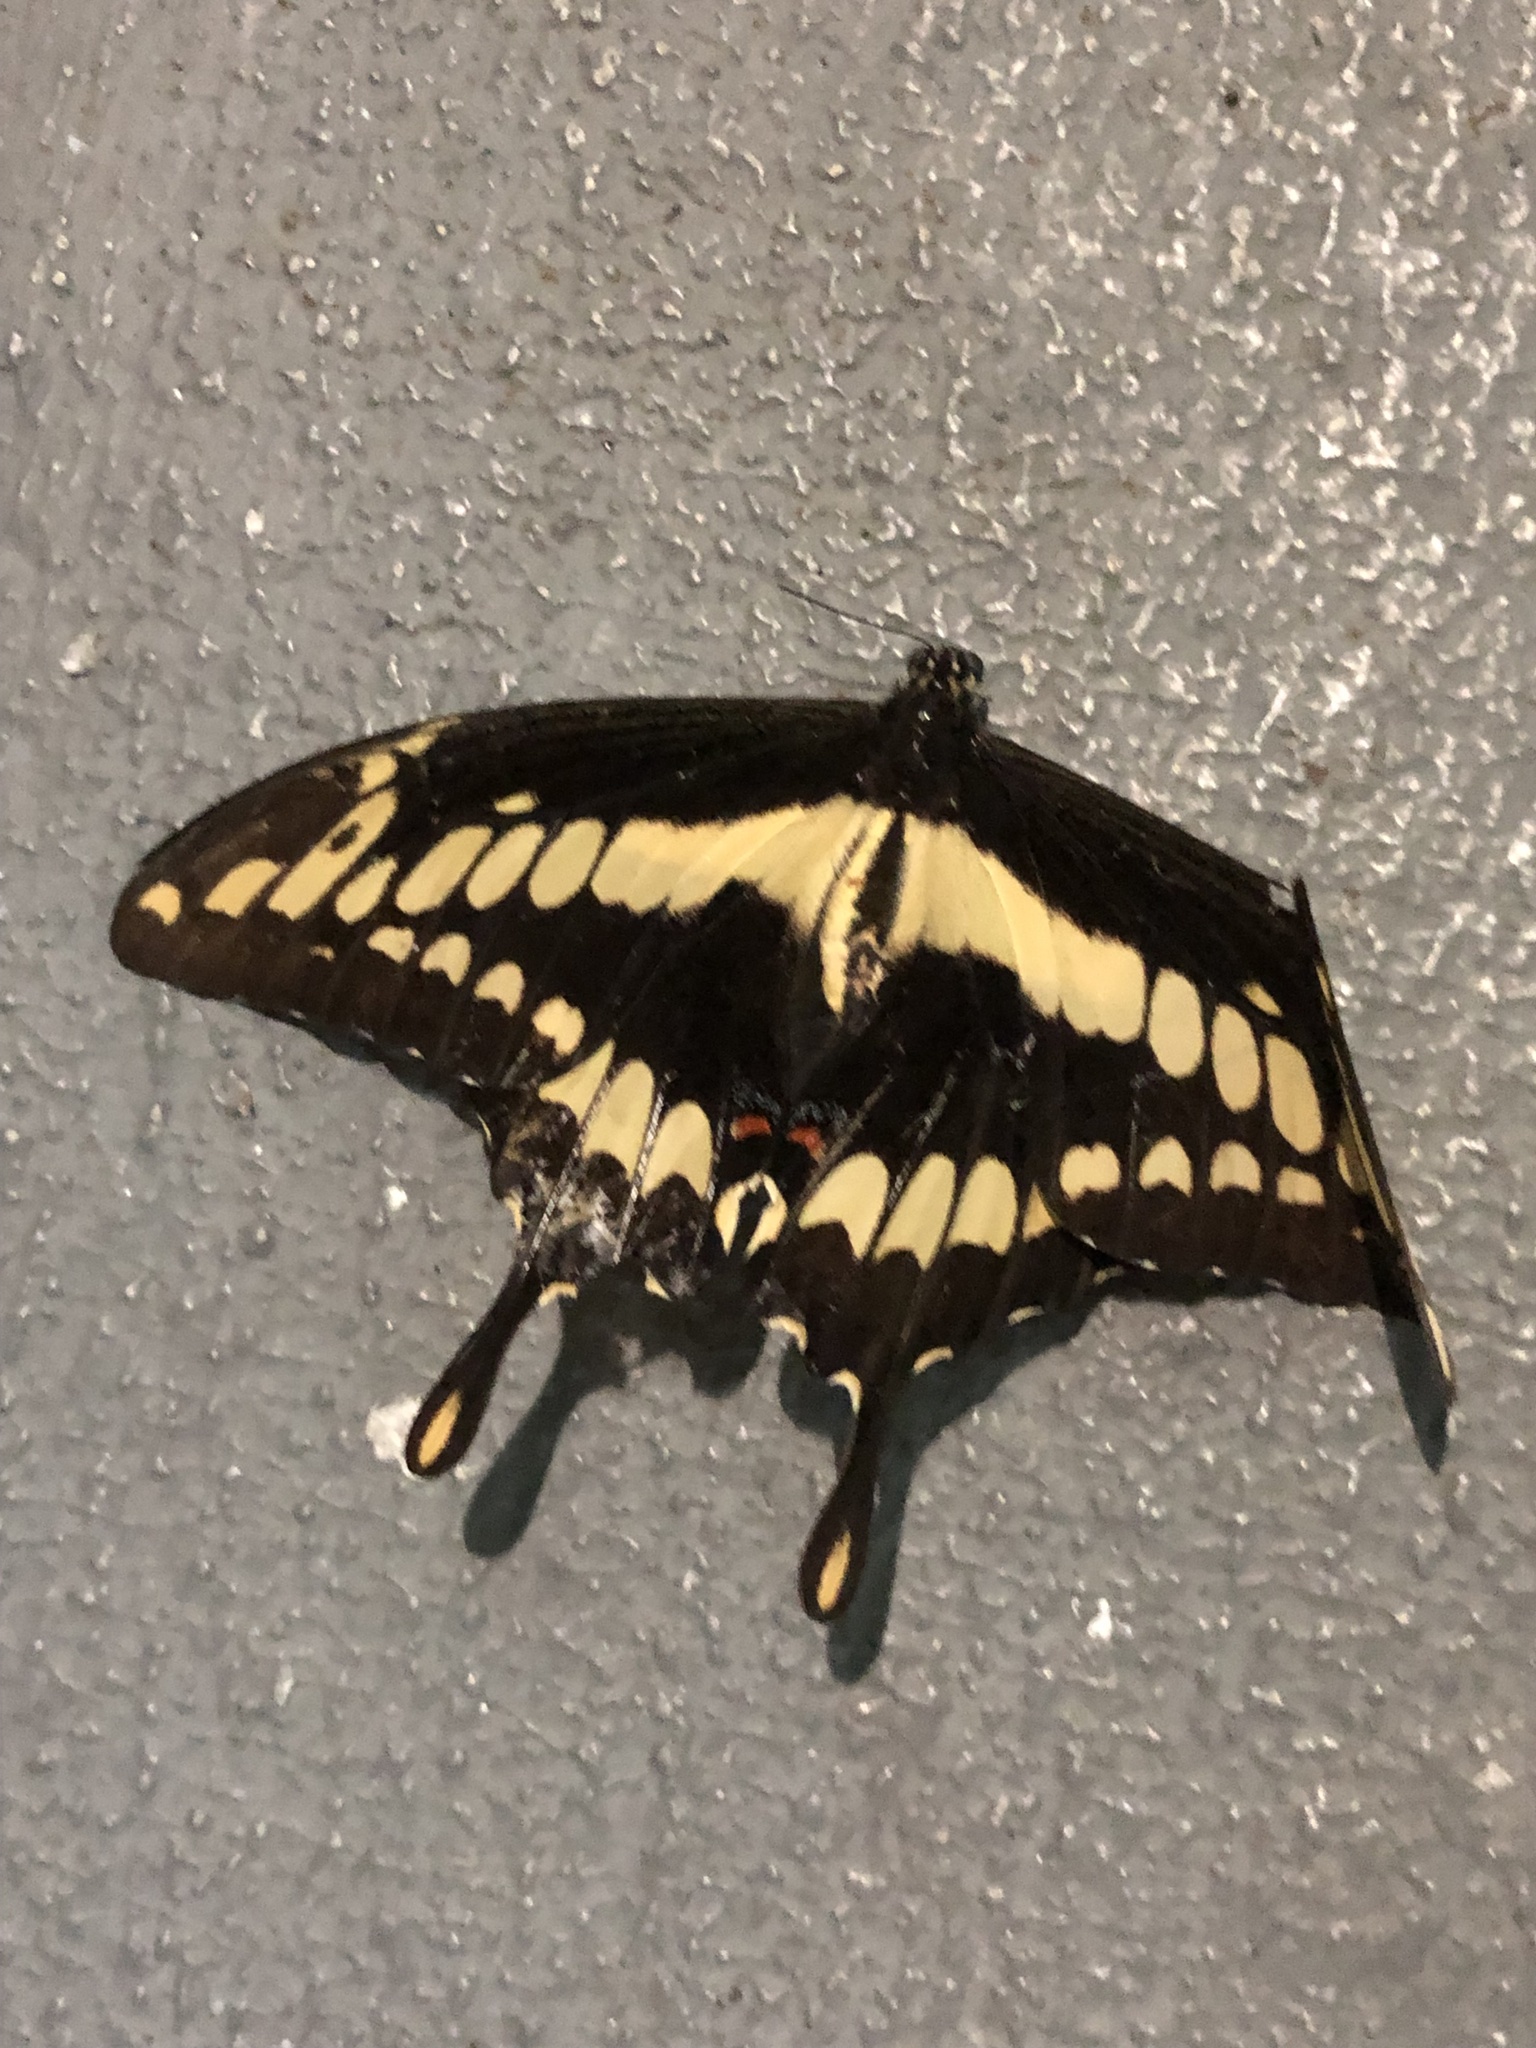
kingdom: Animalia
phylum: Arthropoda
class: Insecta
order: Lepidoptera
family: Papilionidae
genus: Papilio
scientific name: Papilio thoas
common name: King swallowtail
